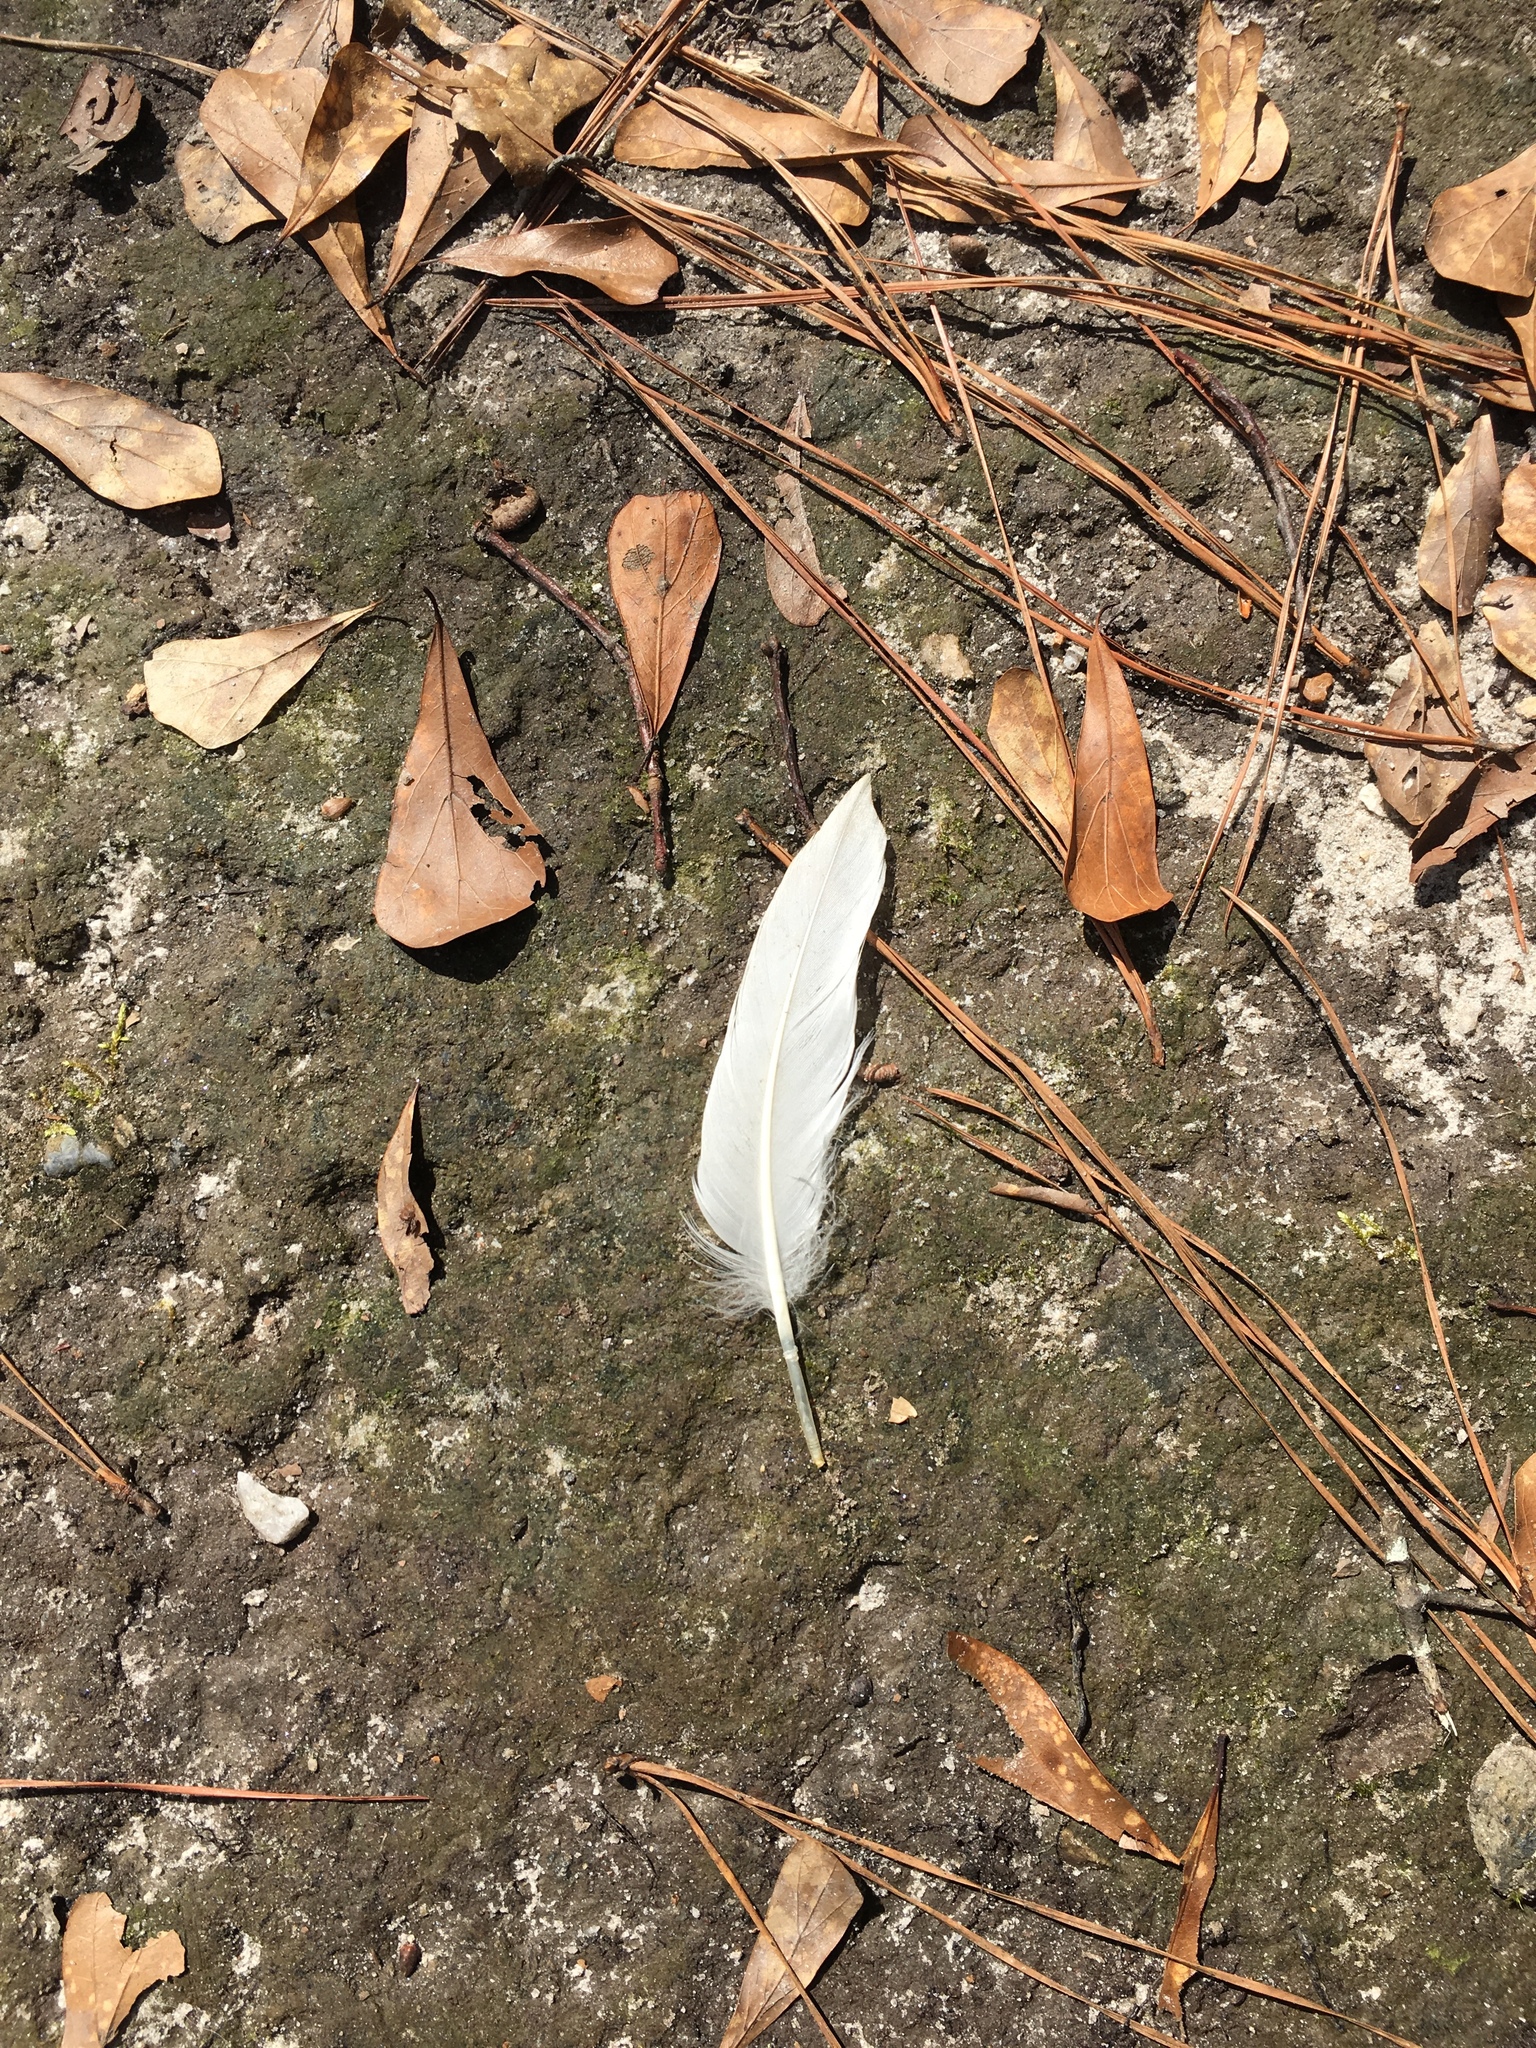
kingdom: Animalia
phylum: Chordata
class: Aves
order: Anseriformes
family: Anatidae
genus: Anas
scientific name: Anas platyrhynchos
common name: Mallard
